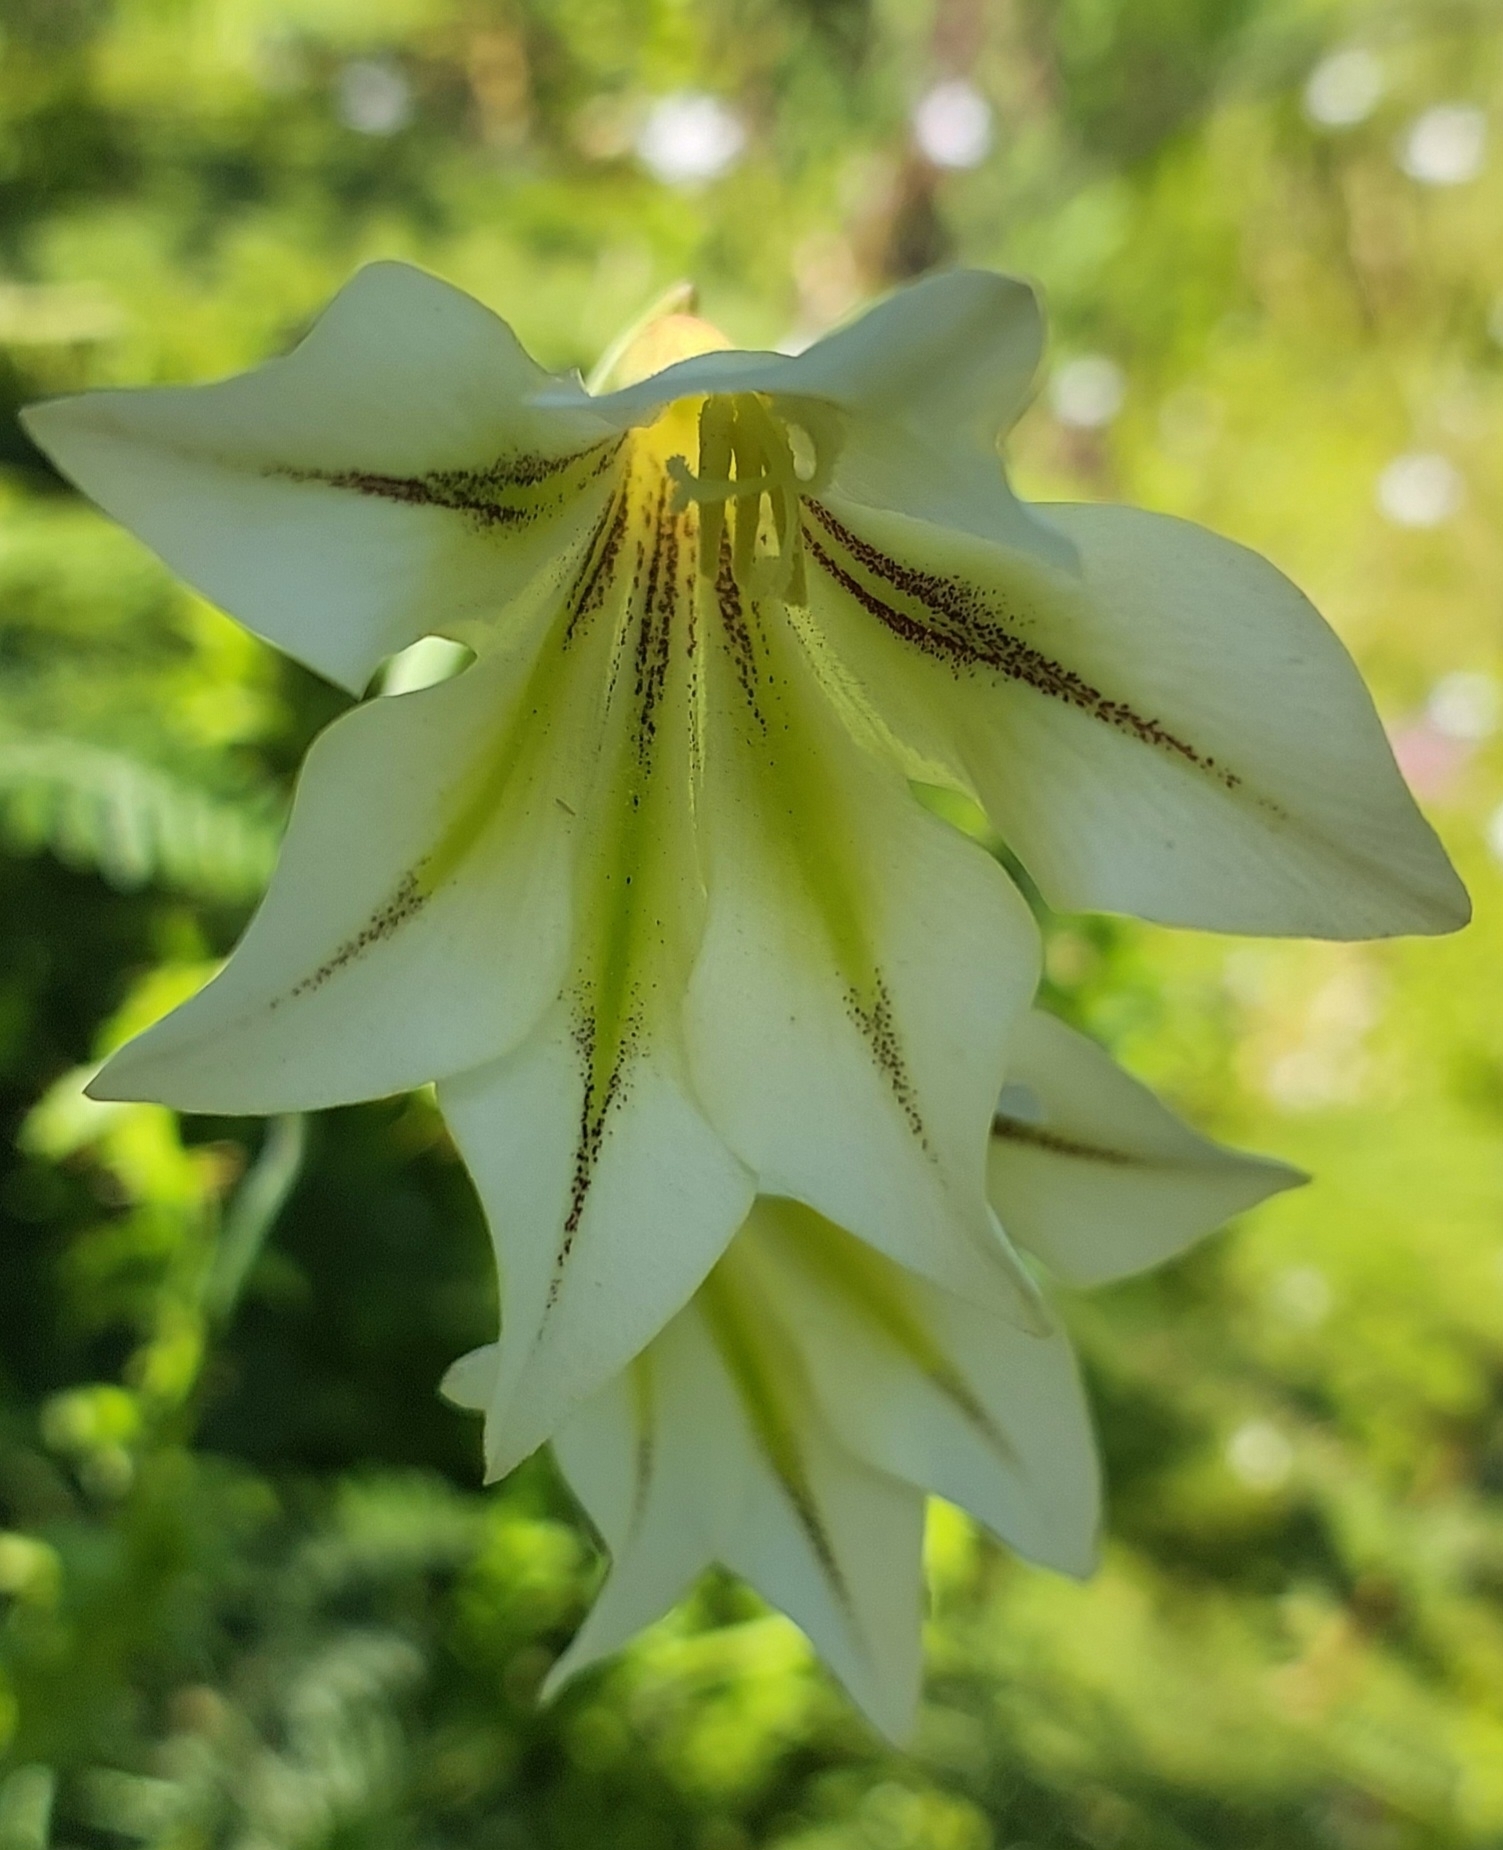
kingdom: Plantae
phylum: Tracheophyta
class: Liliopsida
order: Asparagales
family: Iridaceae
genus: Gladiolus
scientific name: Gladiolus tristis
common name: Ever-flowering gladiolus
